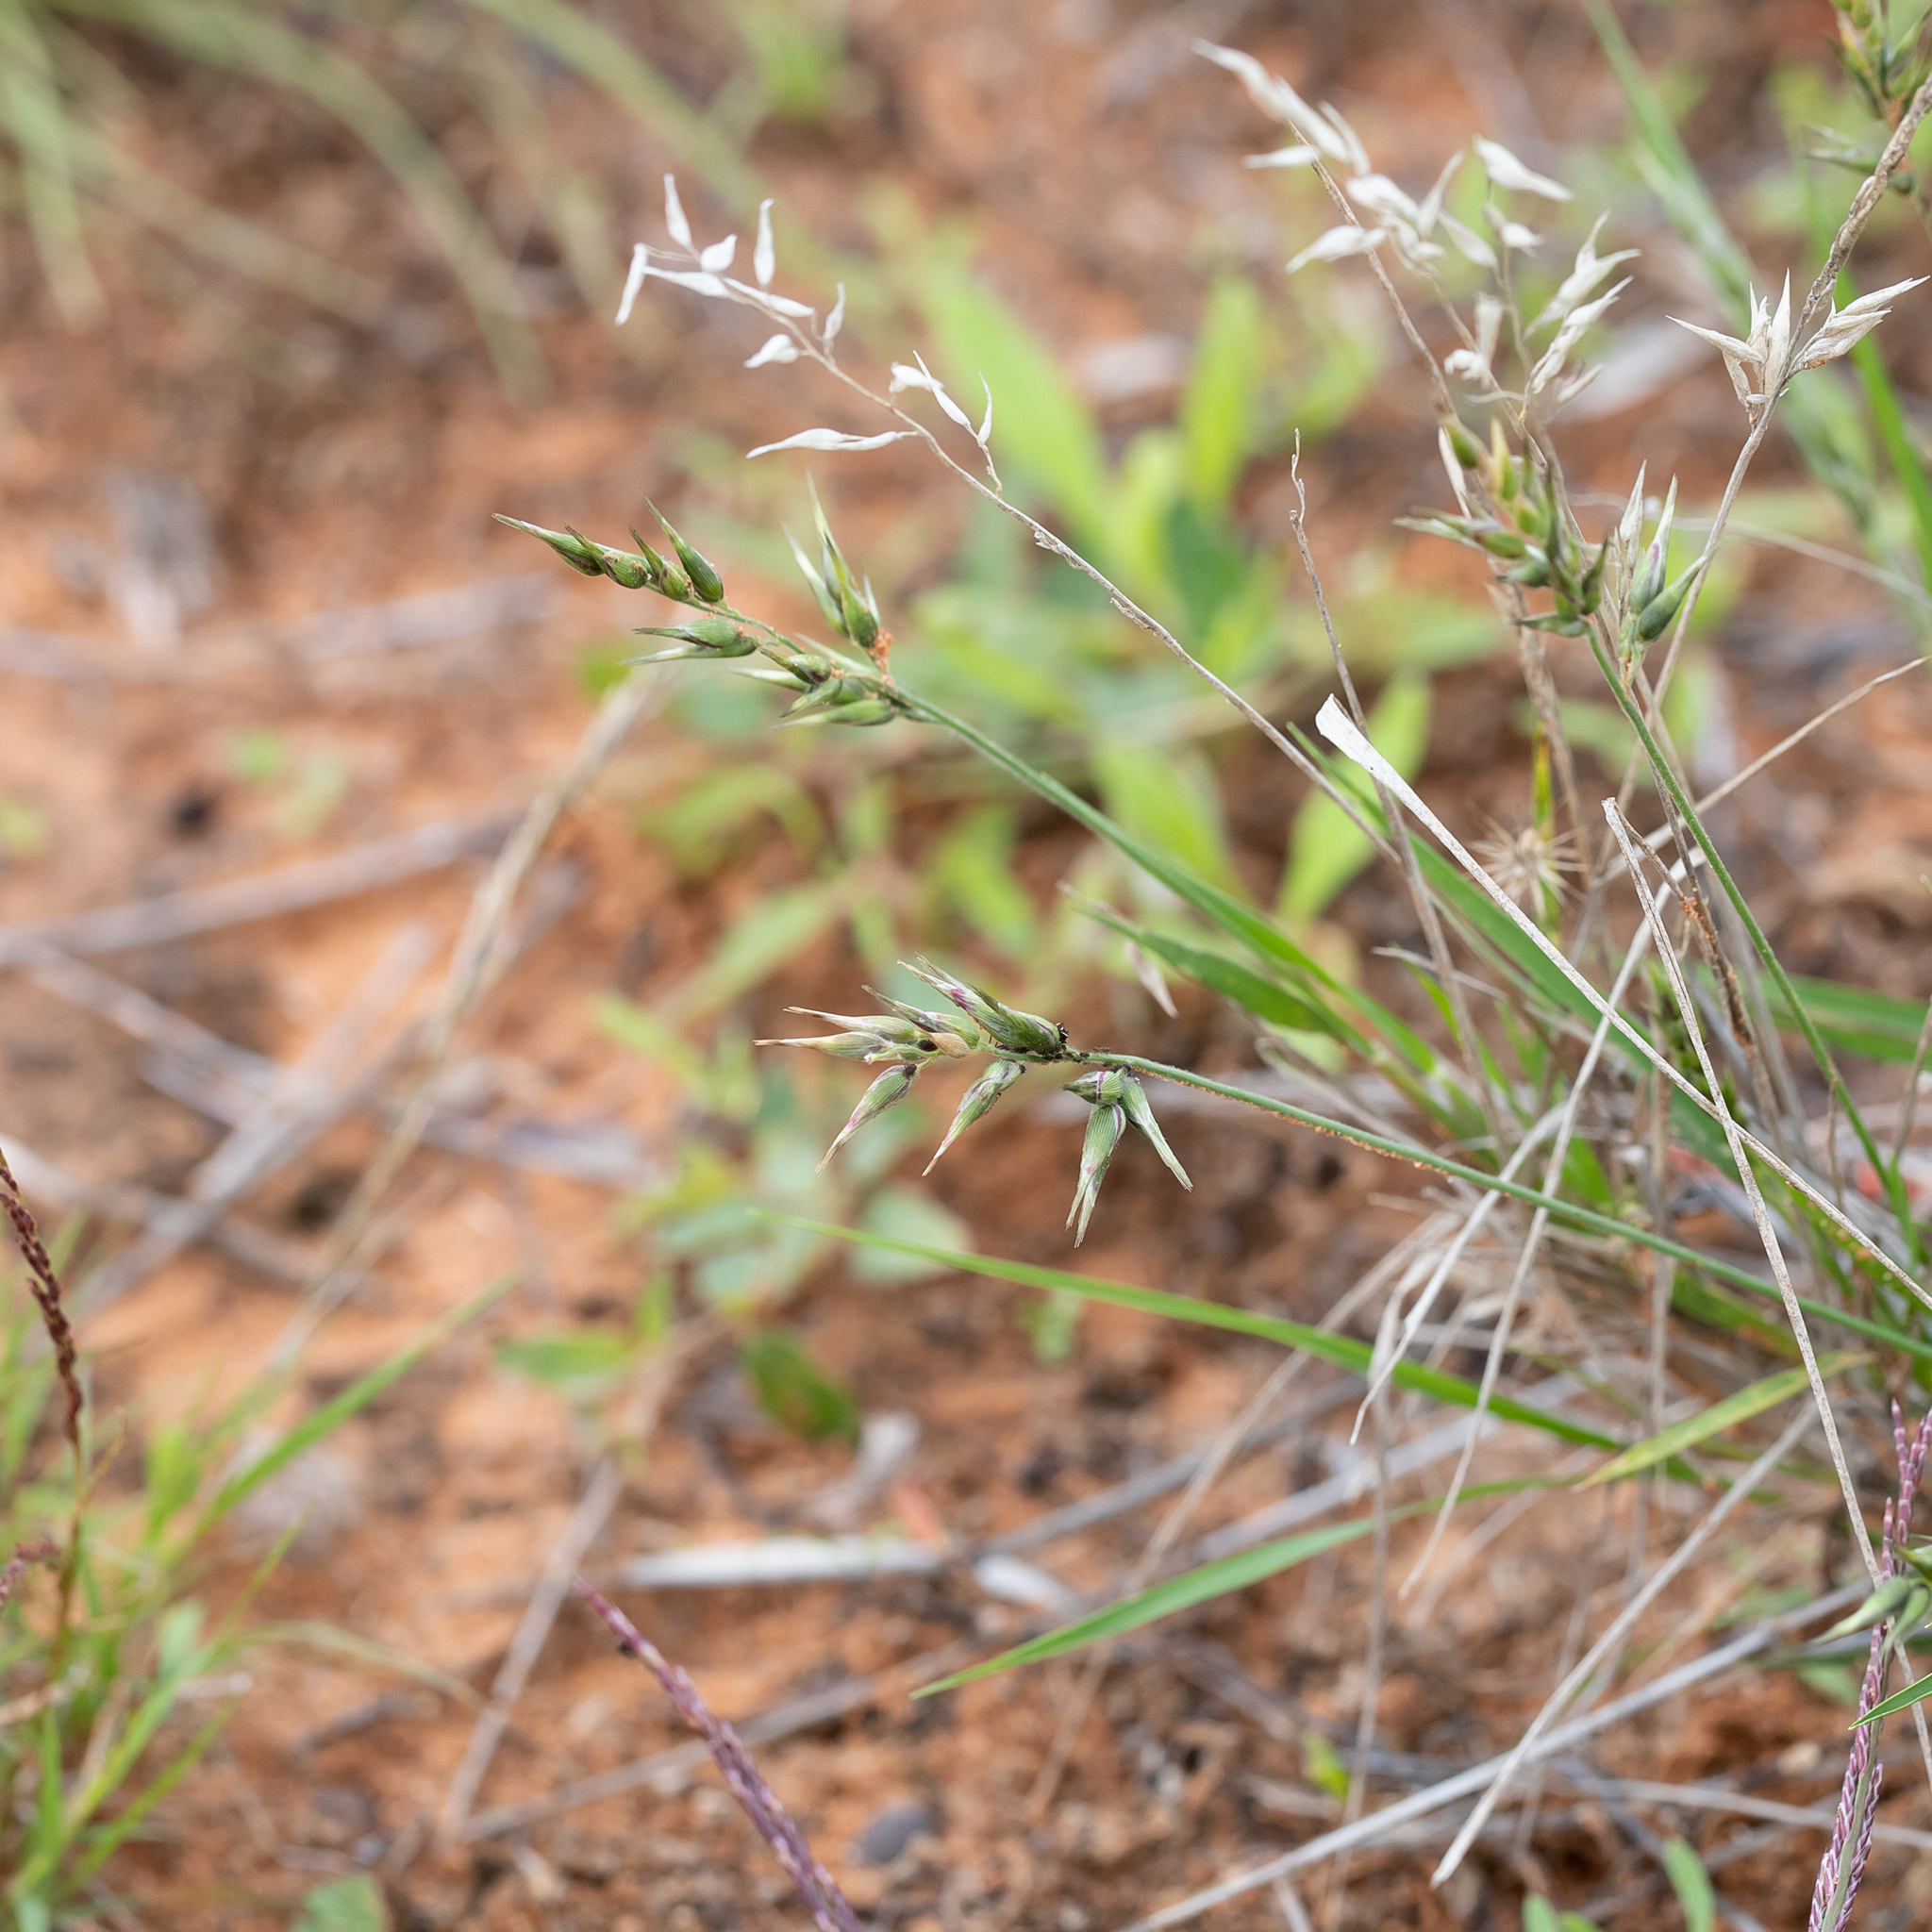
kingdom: Plantae
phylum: Tracheophyta
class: Liliopsida
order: Poales
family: Poaceae
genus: Enneapogon
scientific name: Enneapogon avenaceus
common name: Hairy oat grass
